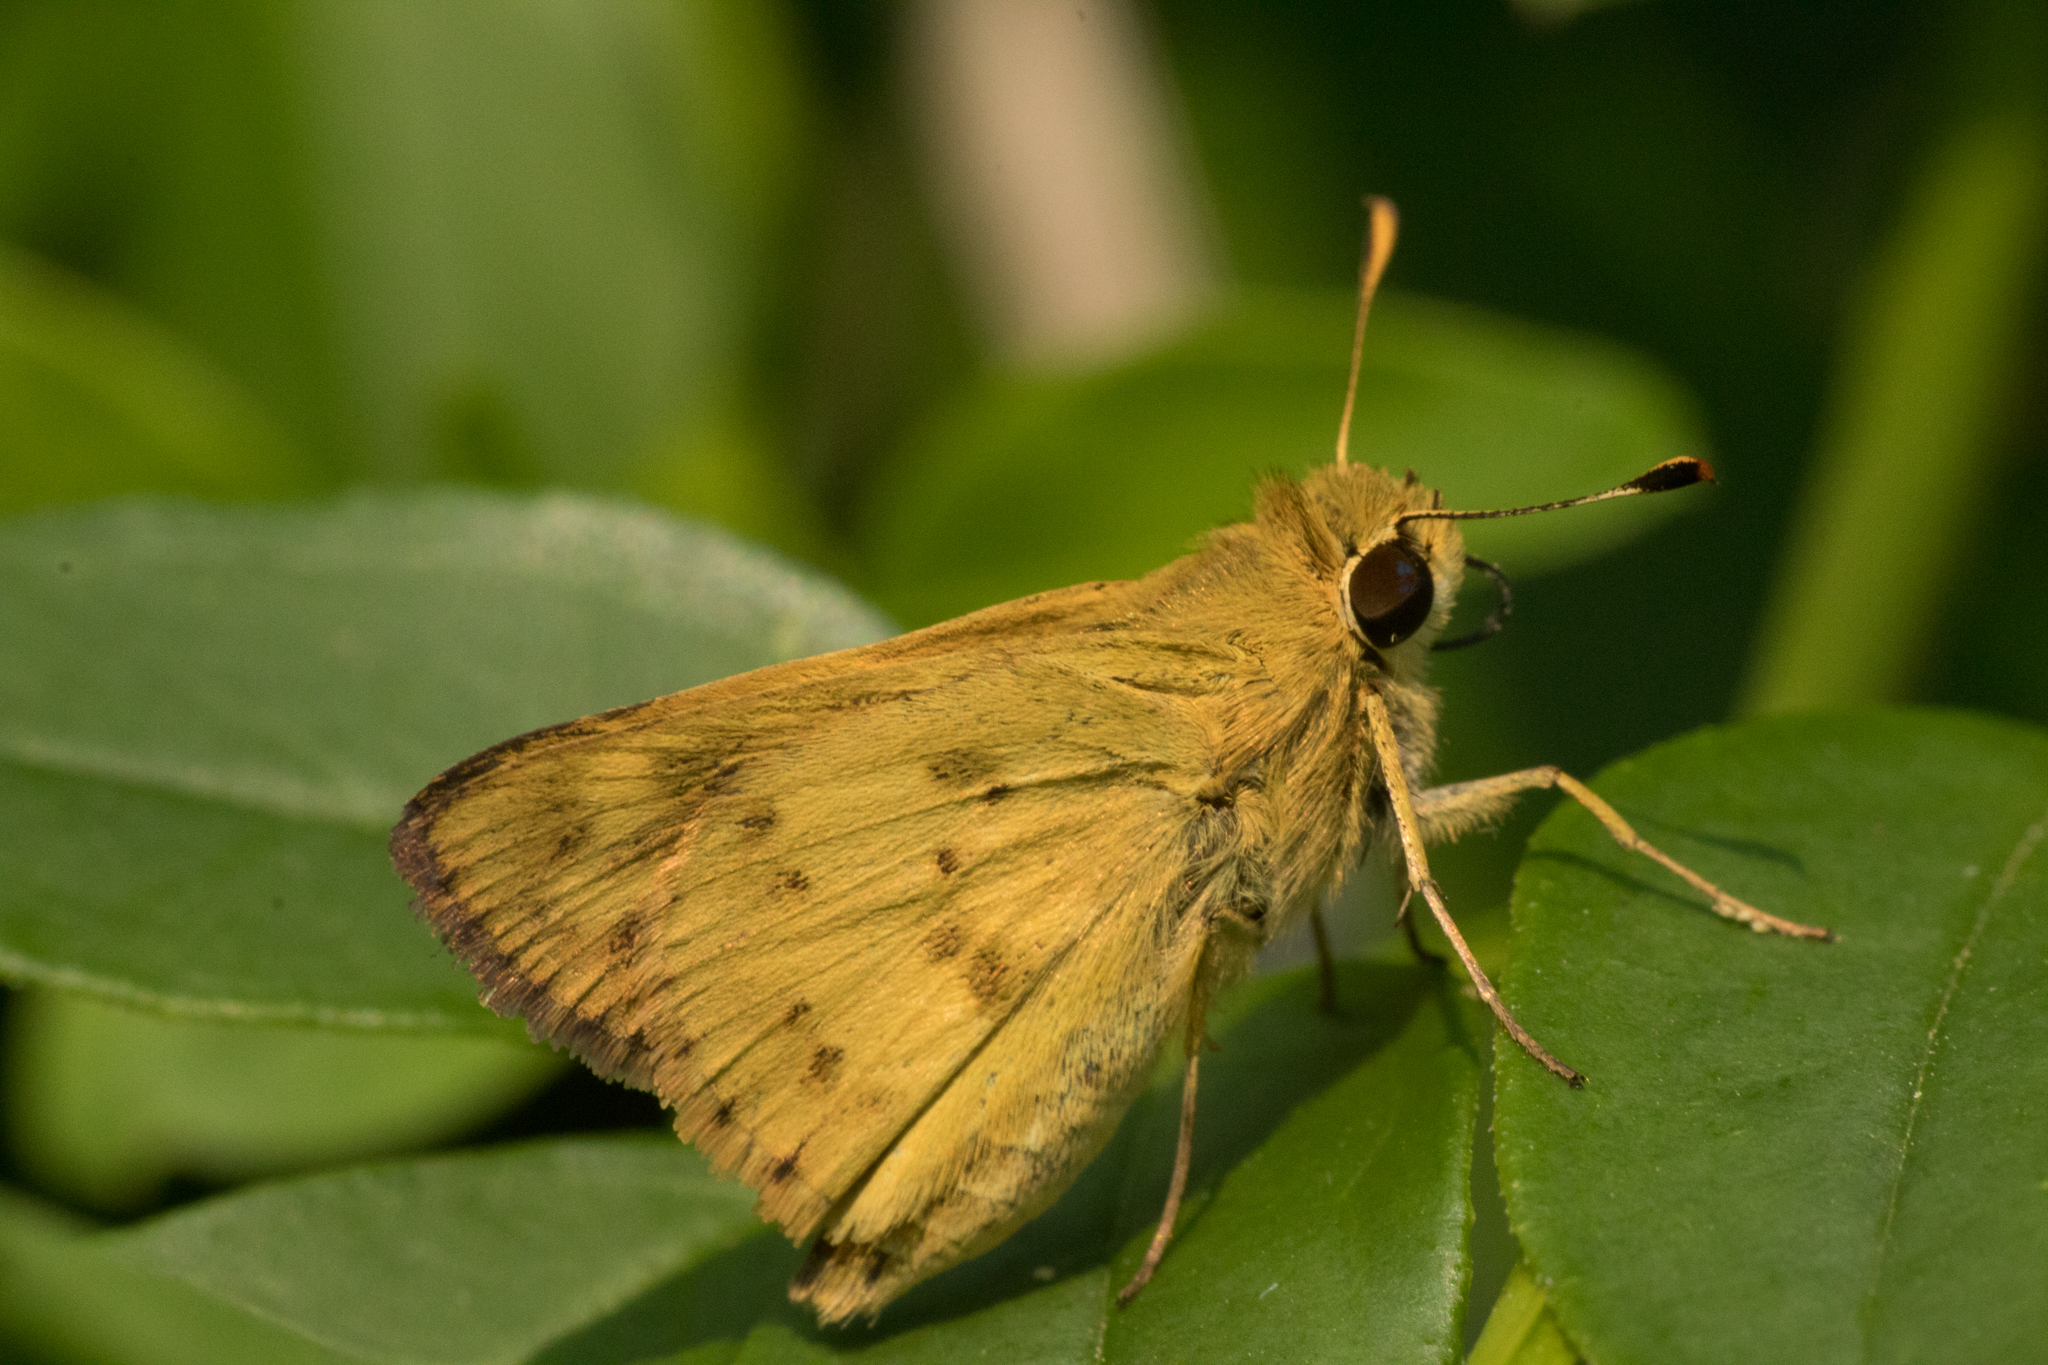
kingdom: Animalia
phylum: Arthropoda
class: Insecta
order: Lepidoptera
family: Hesperiidae
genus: Polites
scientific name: Polites vibex
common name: Whirlabout
